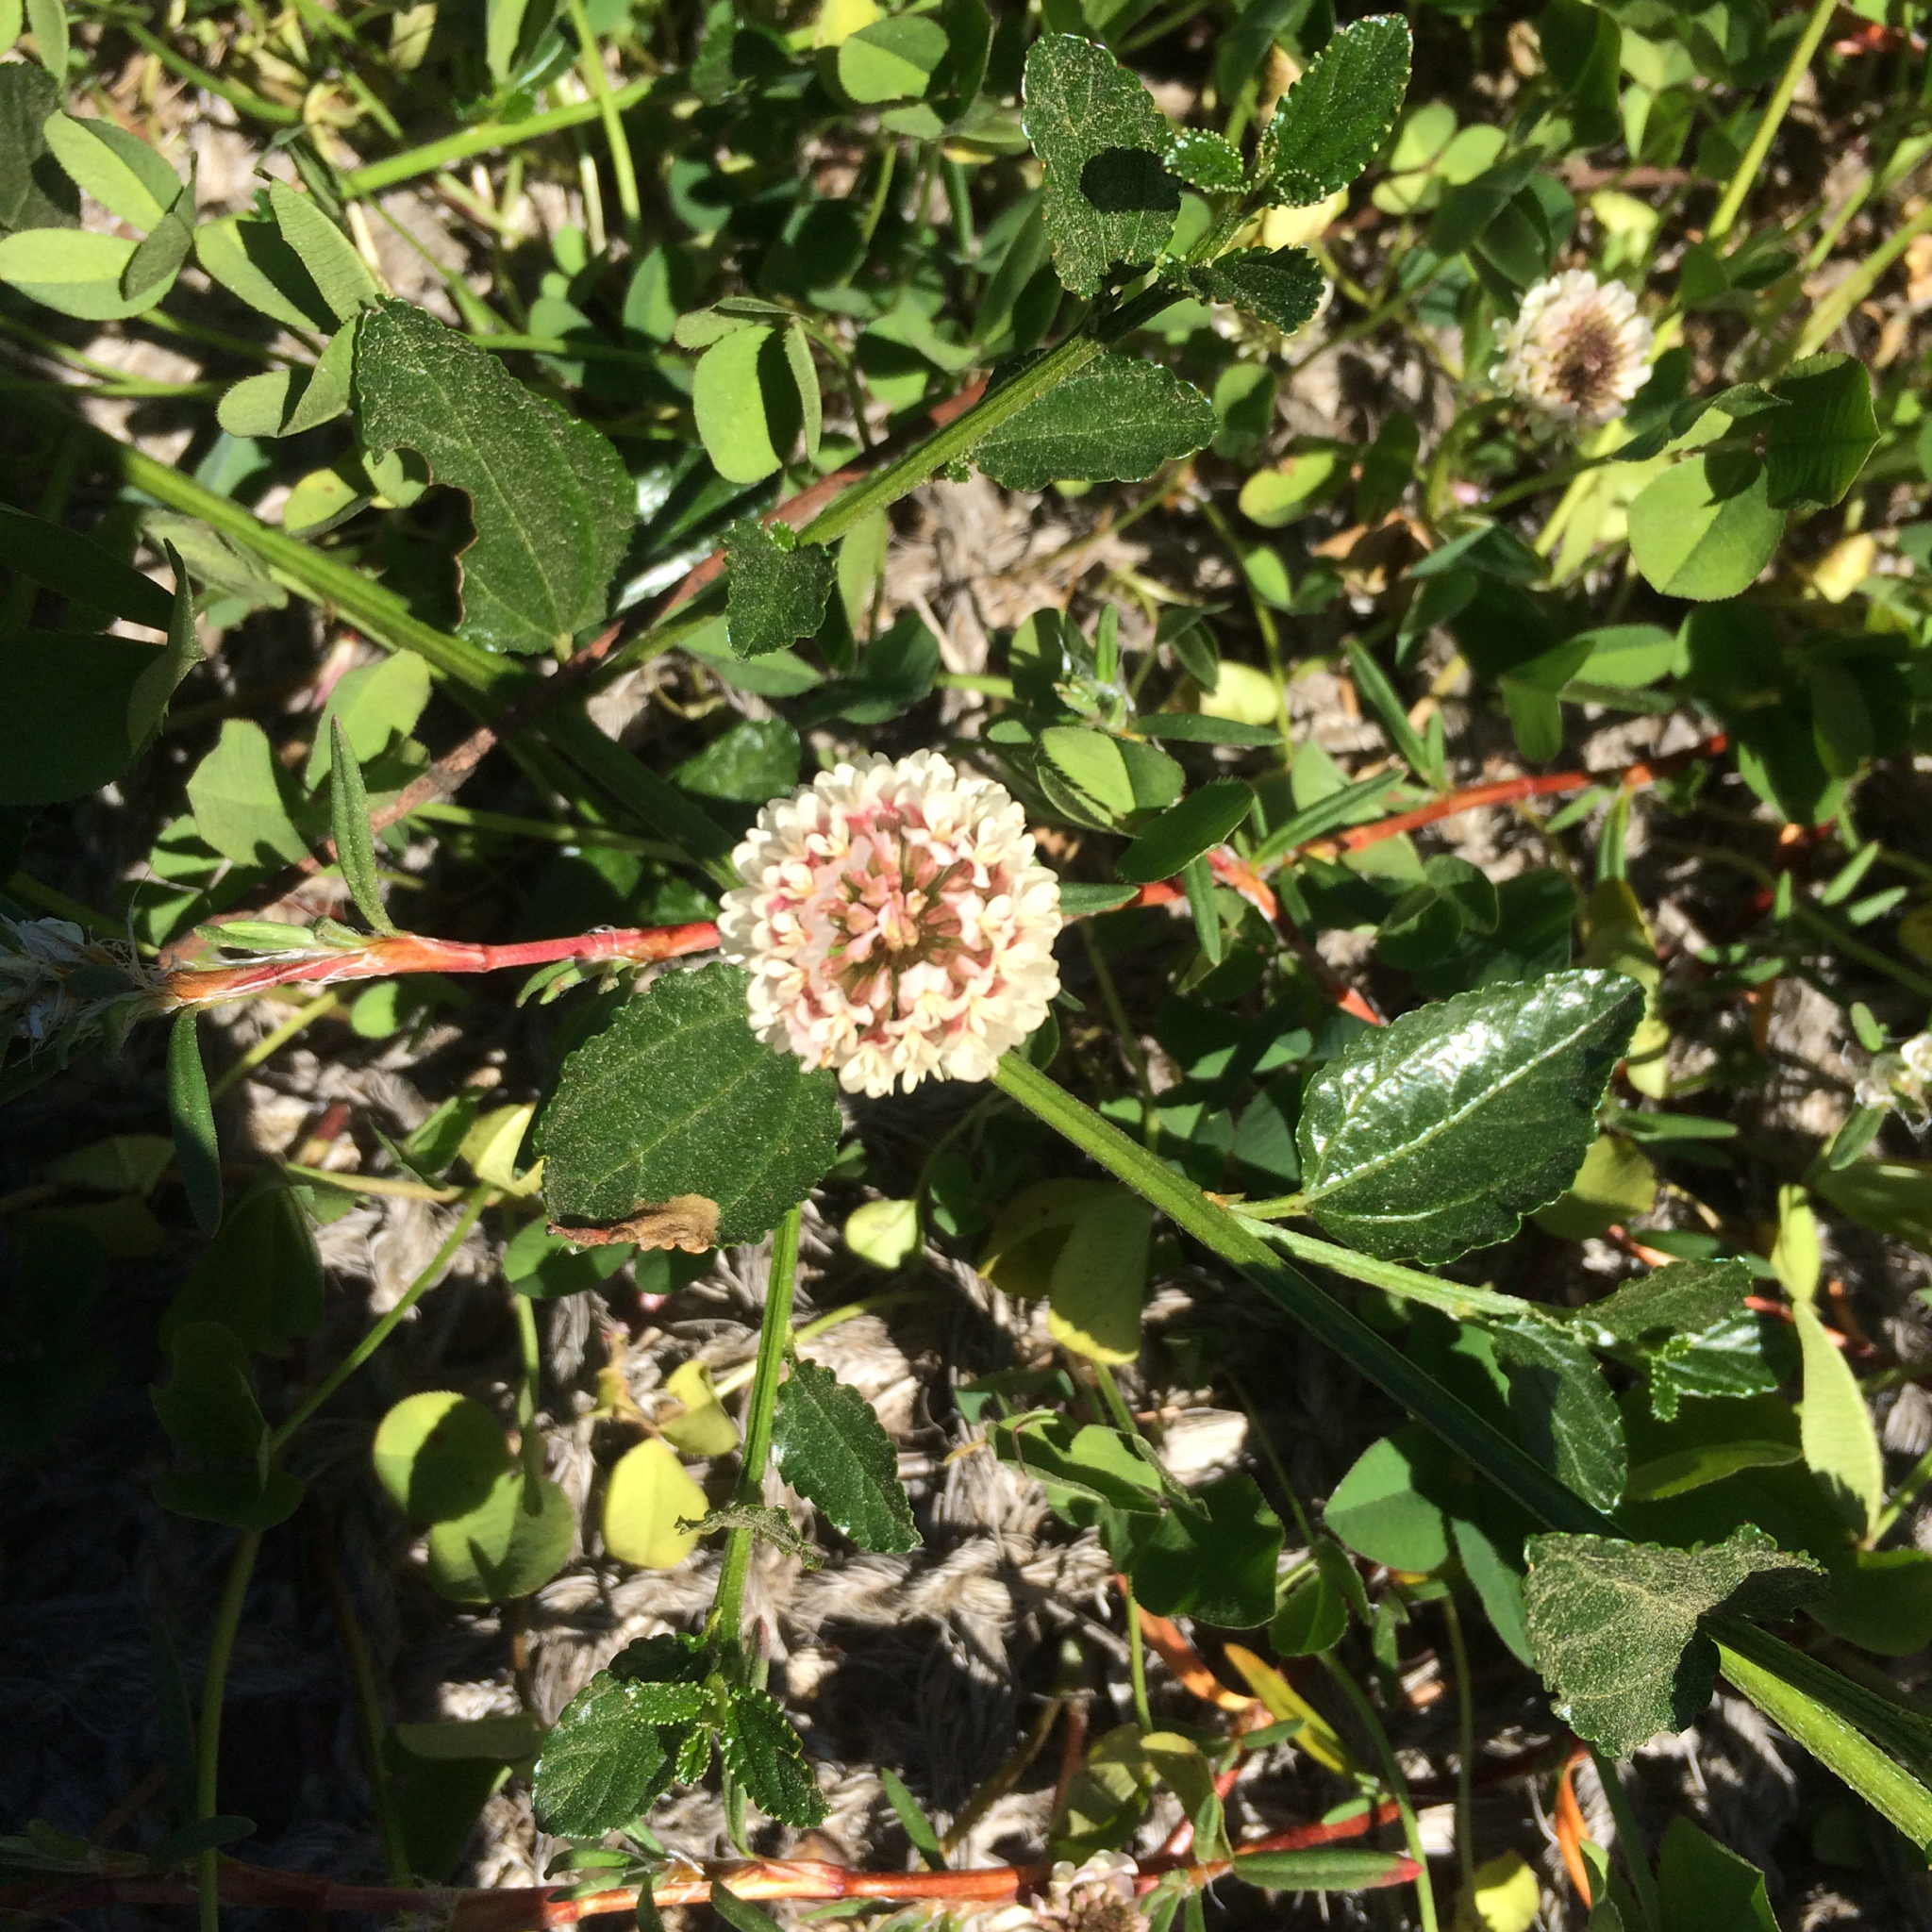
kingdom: Plantae
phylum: Tracheophyta
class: Magnoliopsida
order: Fabales
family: Fabaceae
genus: Trifolium
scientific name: Trifolium repens
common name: White clover
